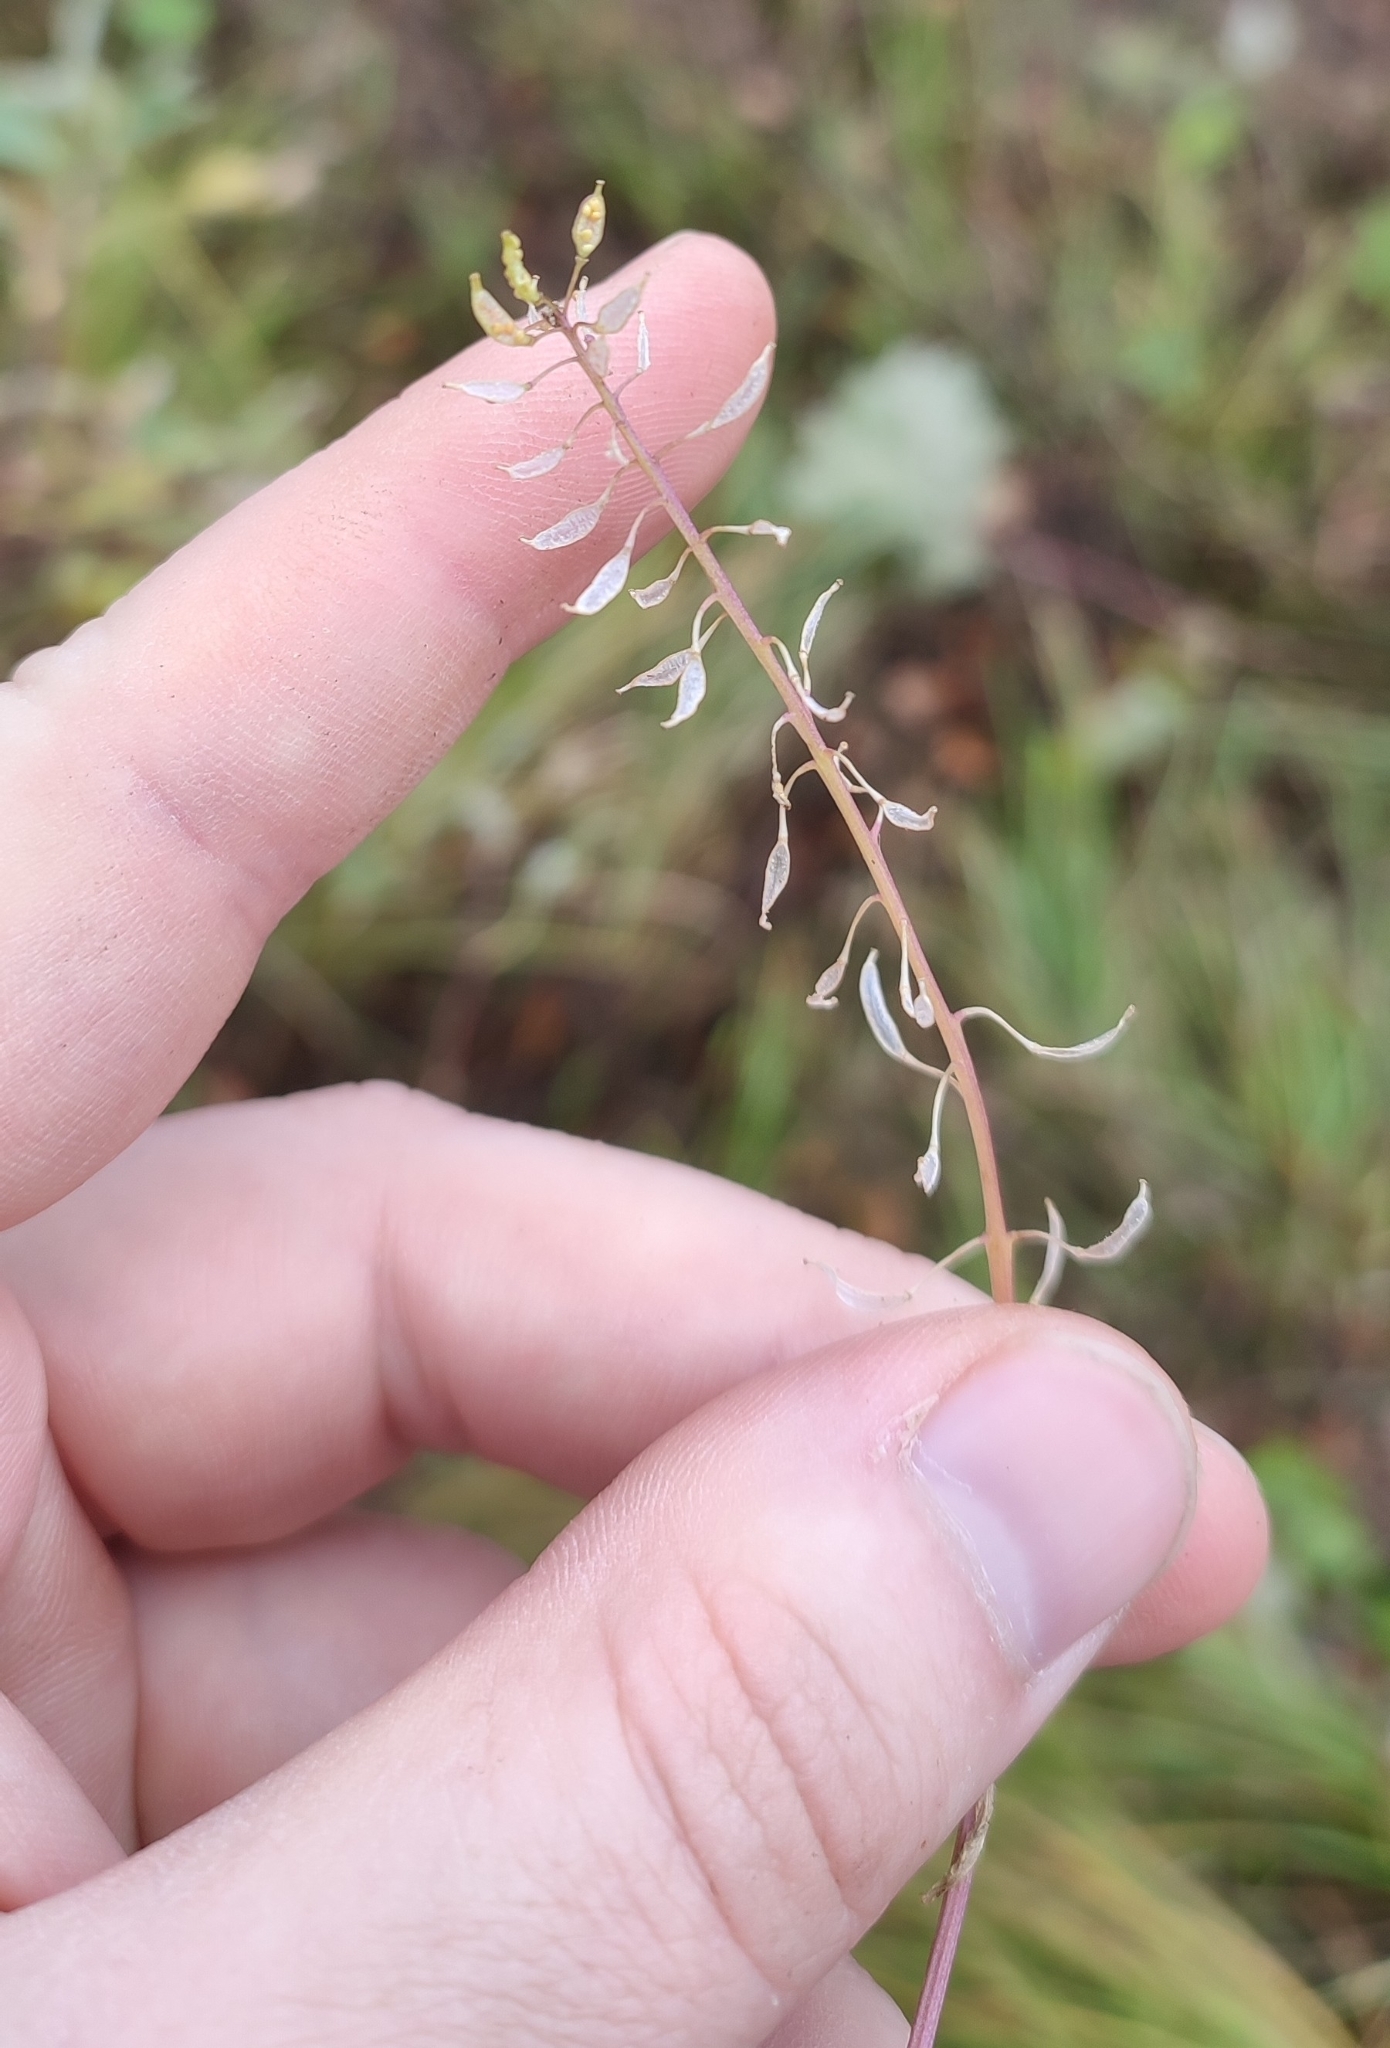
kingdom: Plantae
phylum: Tracheophyta
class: Magnoliopsida
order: Brassicales
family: Brassicaceae
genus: Rorippa
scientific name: Rorippa palustris
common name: Marsh yellow-cress
